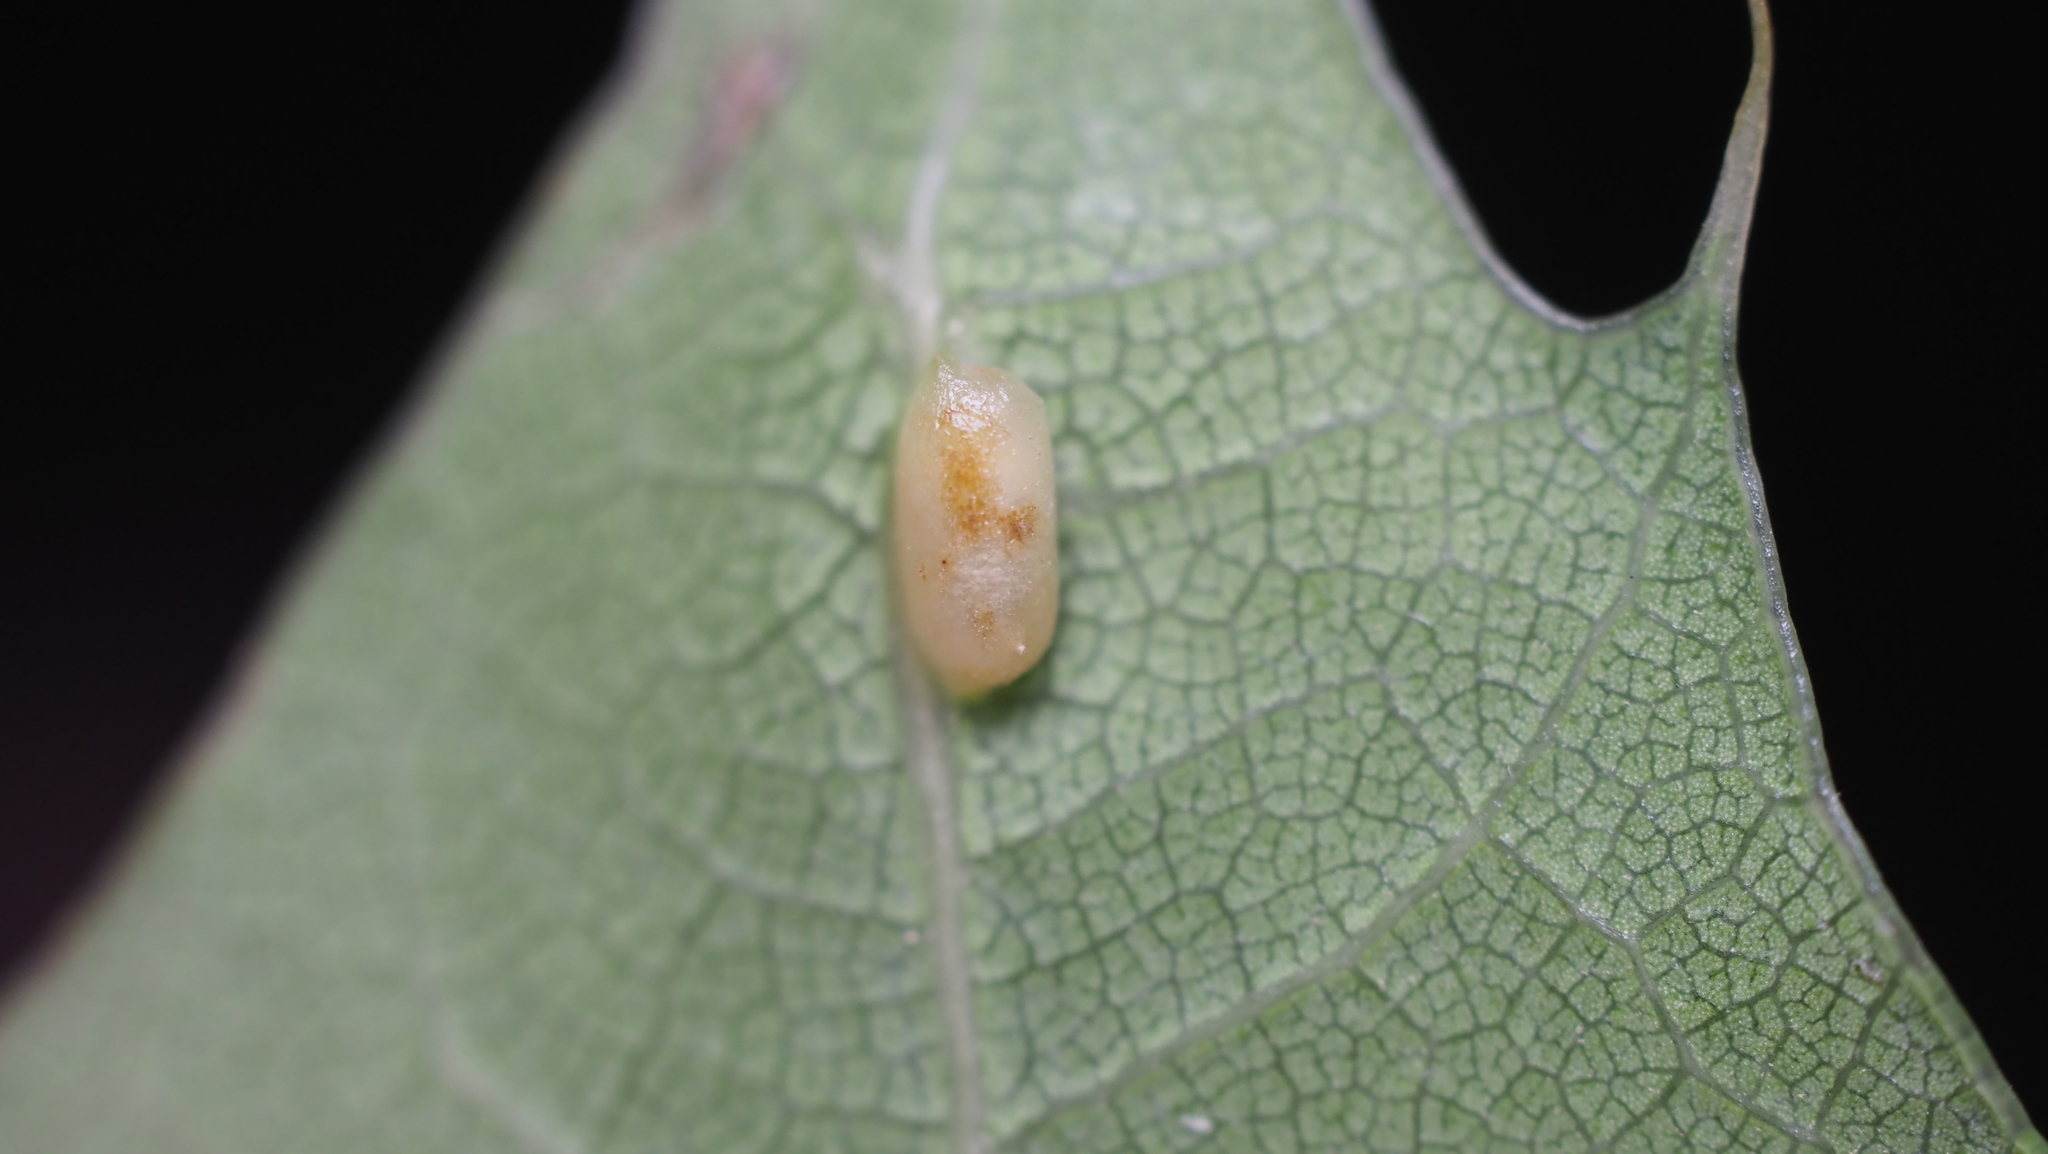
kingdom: Animalia
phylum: Arthropoda
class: Insecta
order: Hymenoptera
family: Cynipidae
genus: Callirhytis
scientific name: Callirhytis
